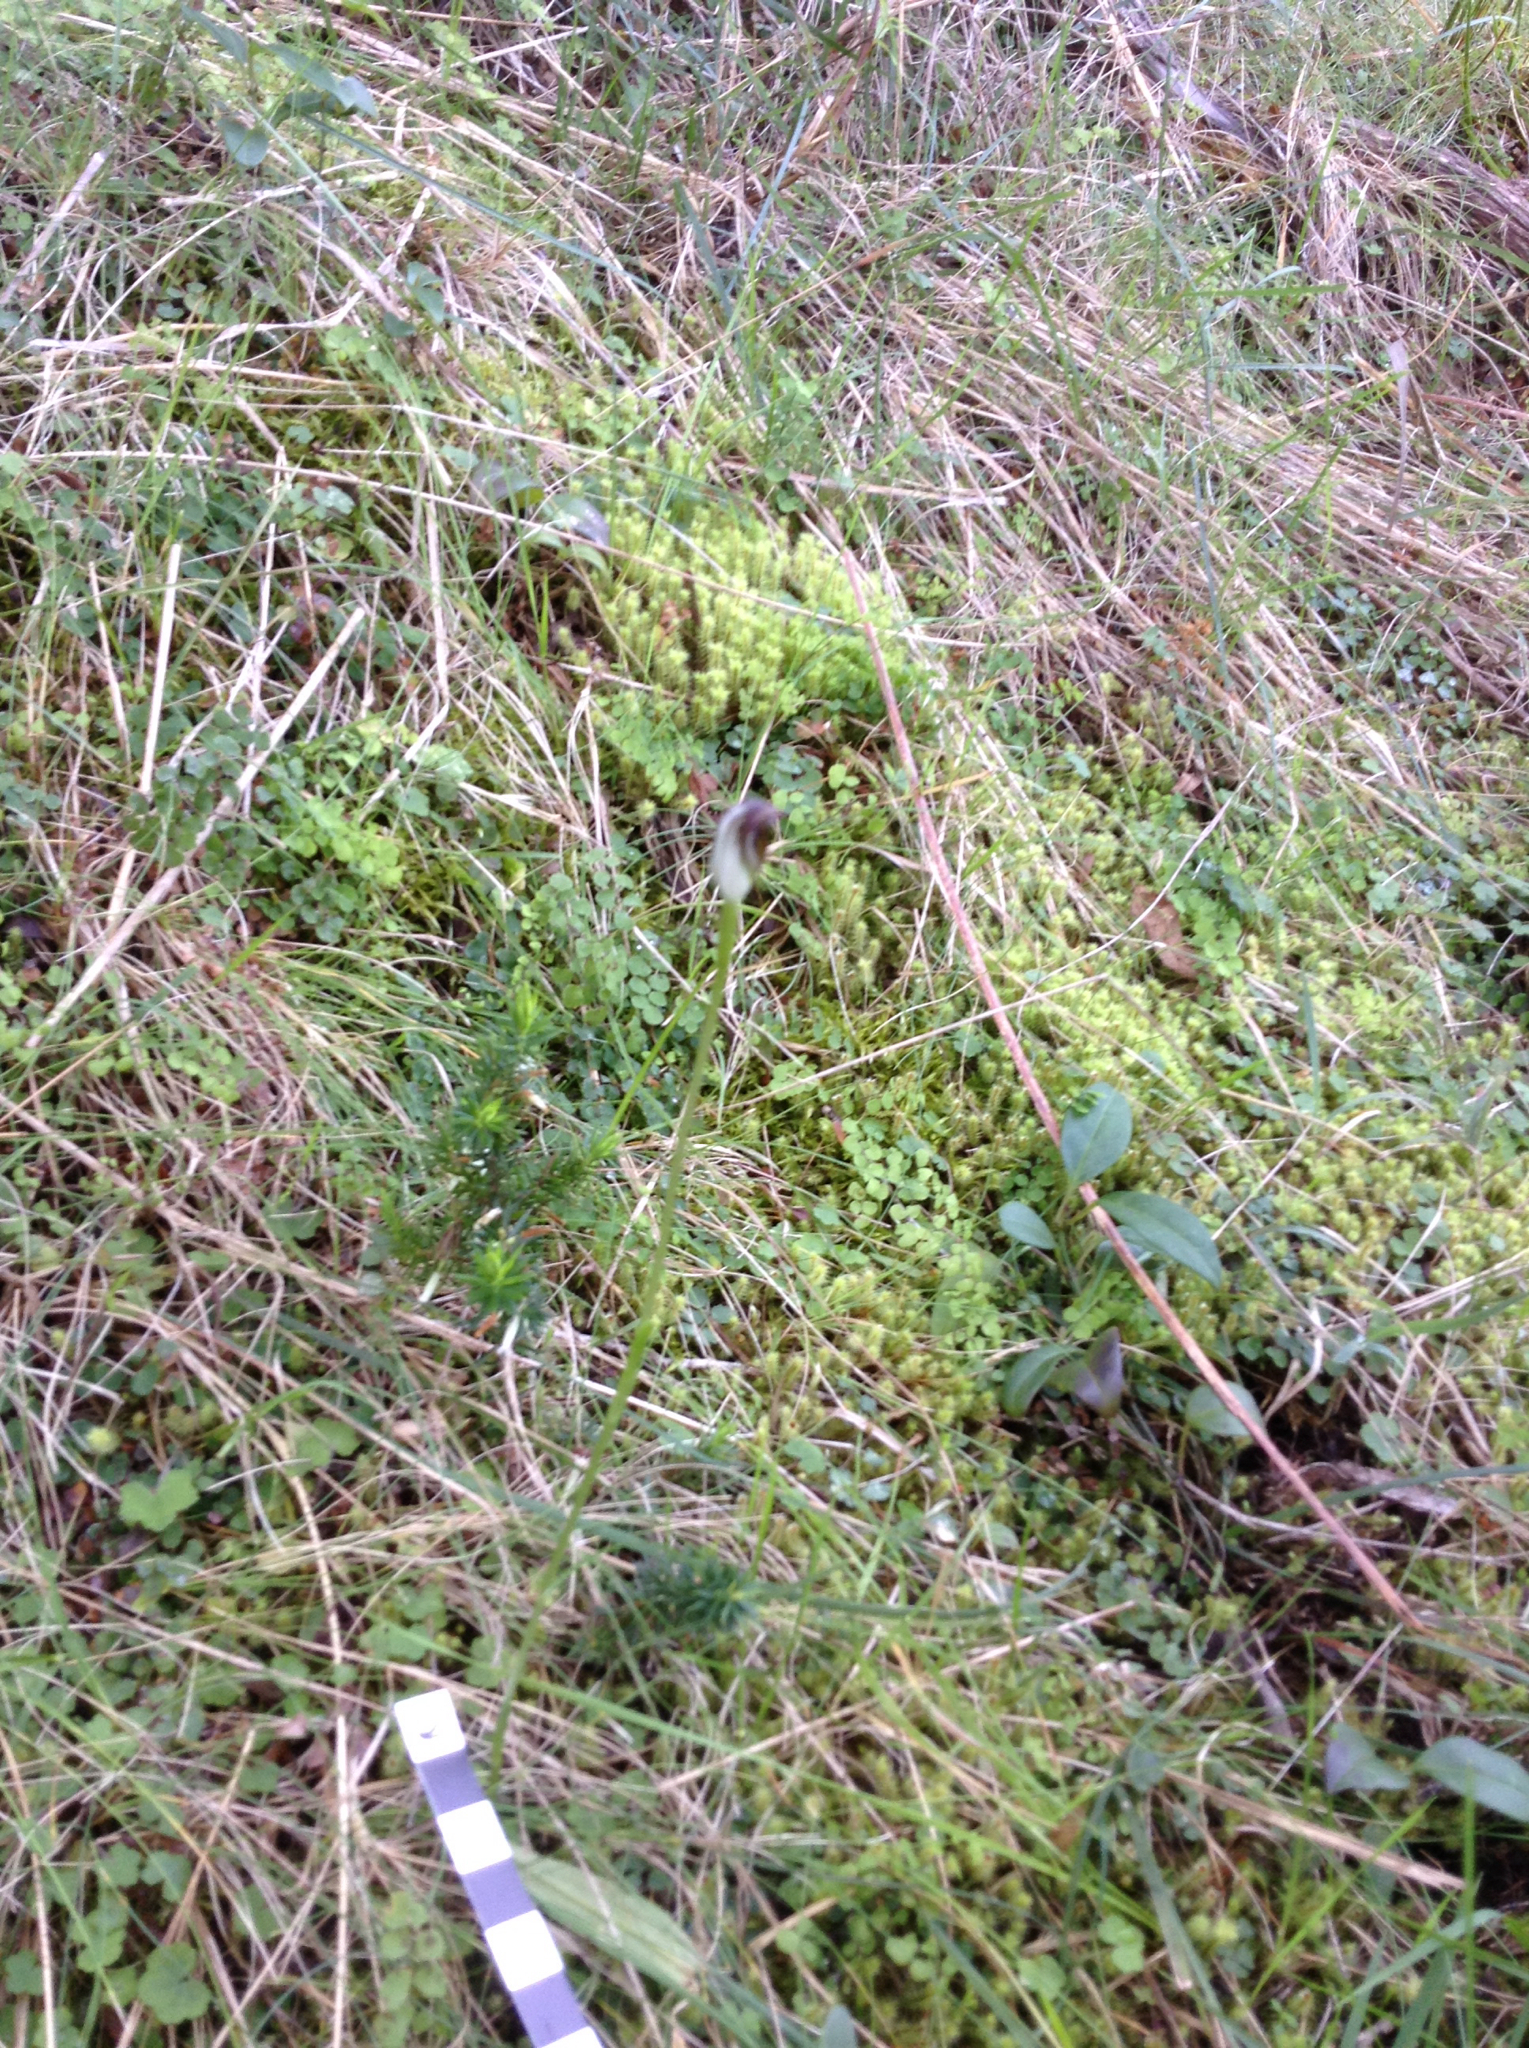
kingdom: Plantae
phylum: Tracheophyta
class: Liliopsida
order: Asparagales
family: Orchidaceae
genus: Pterostylis
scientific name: Pterostylis pedunculata
